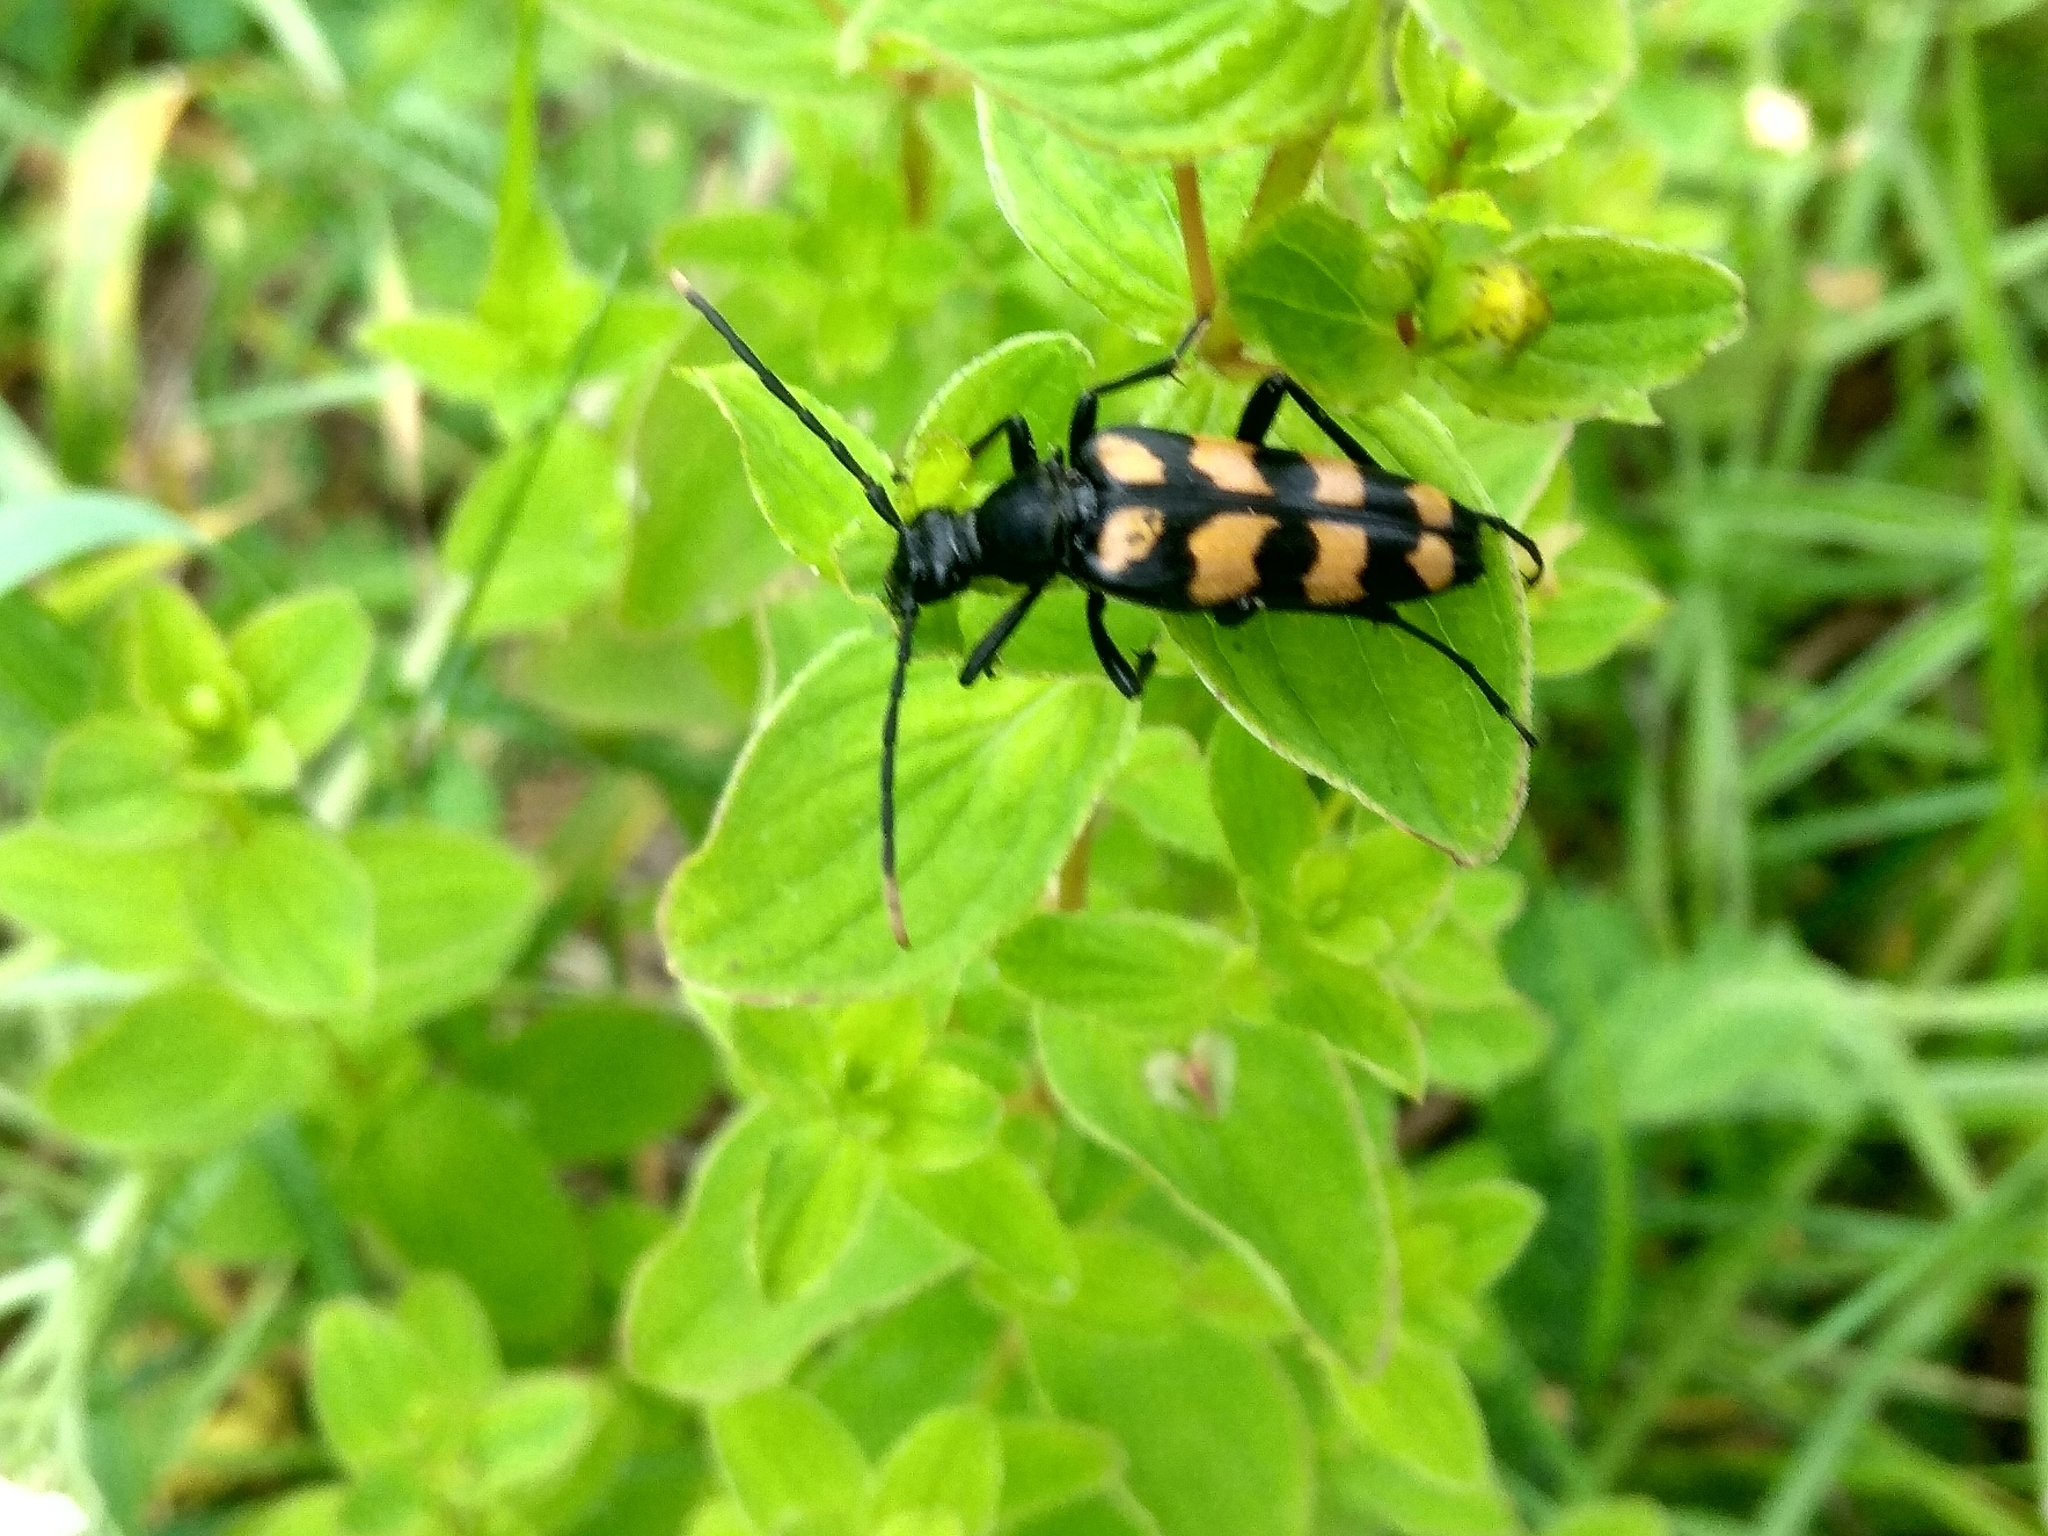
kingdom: Animalia
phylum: Arthropoda
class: Insecta
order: Coleoptera
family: Cerambycidae
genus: Leptura
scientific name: Leptura quadrifasciata
